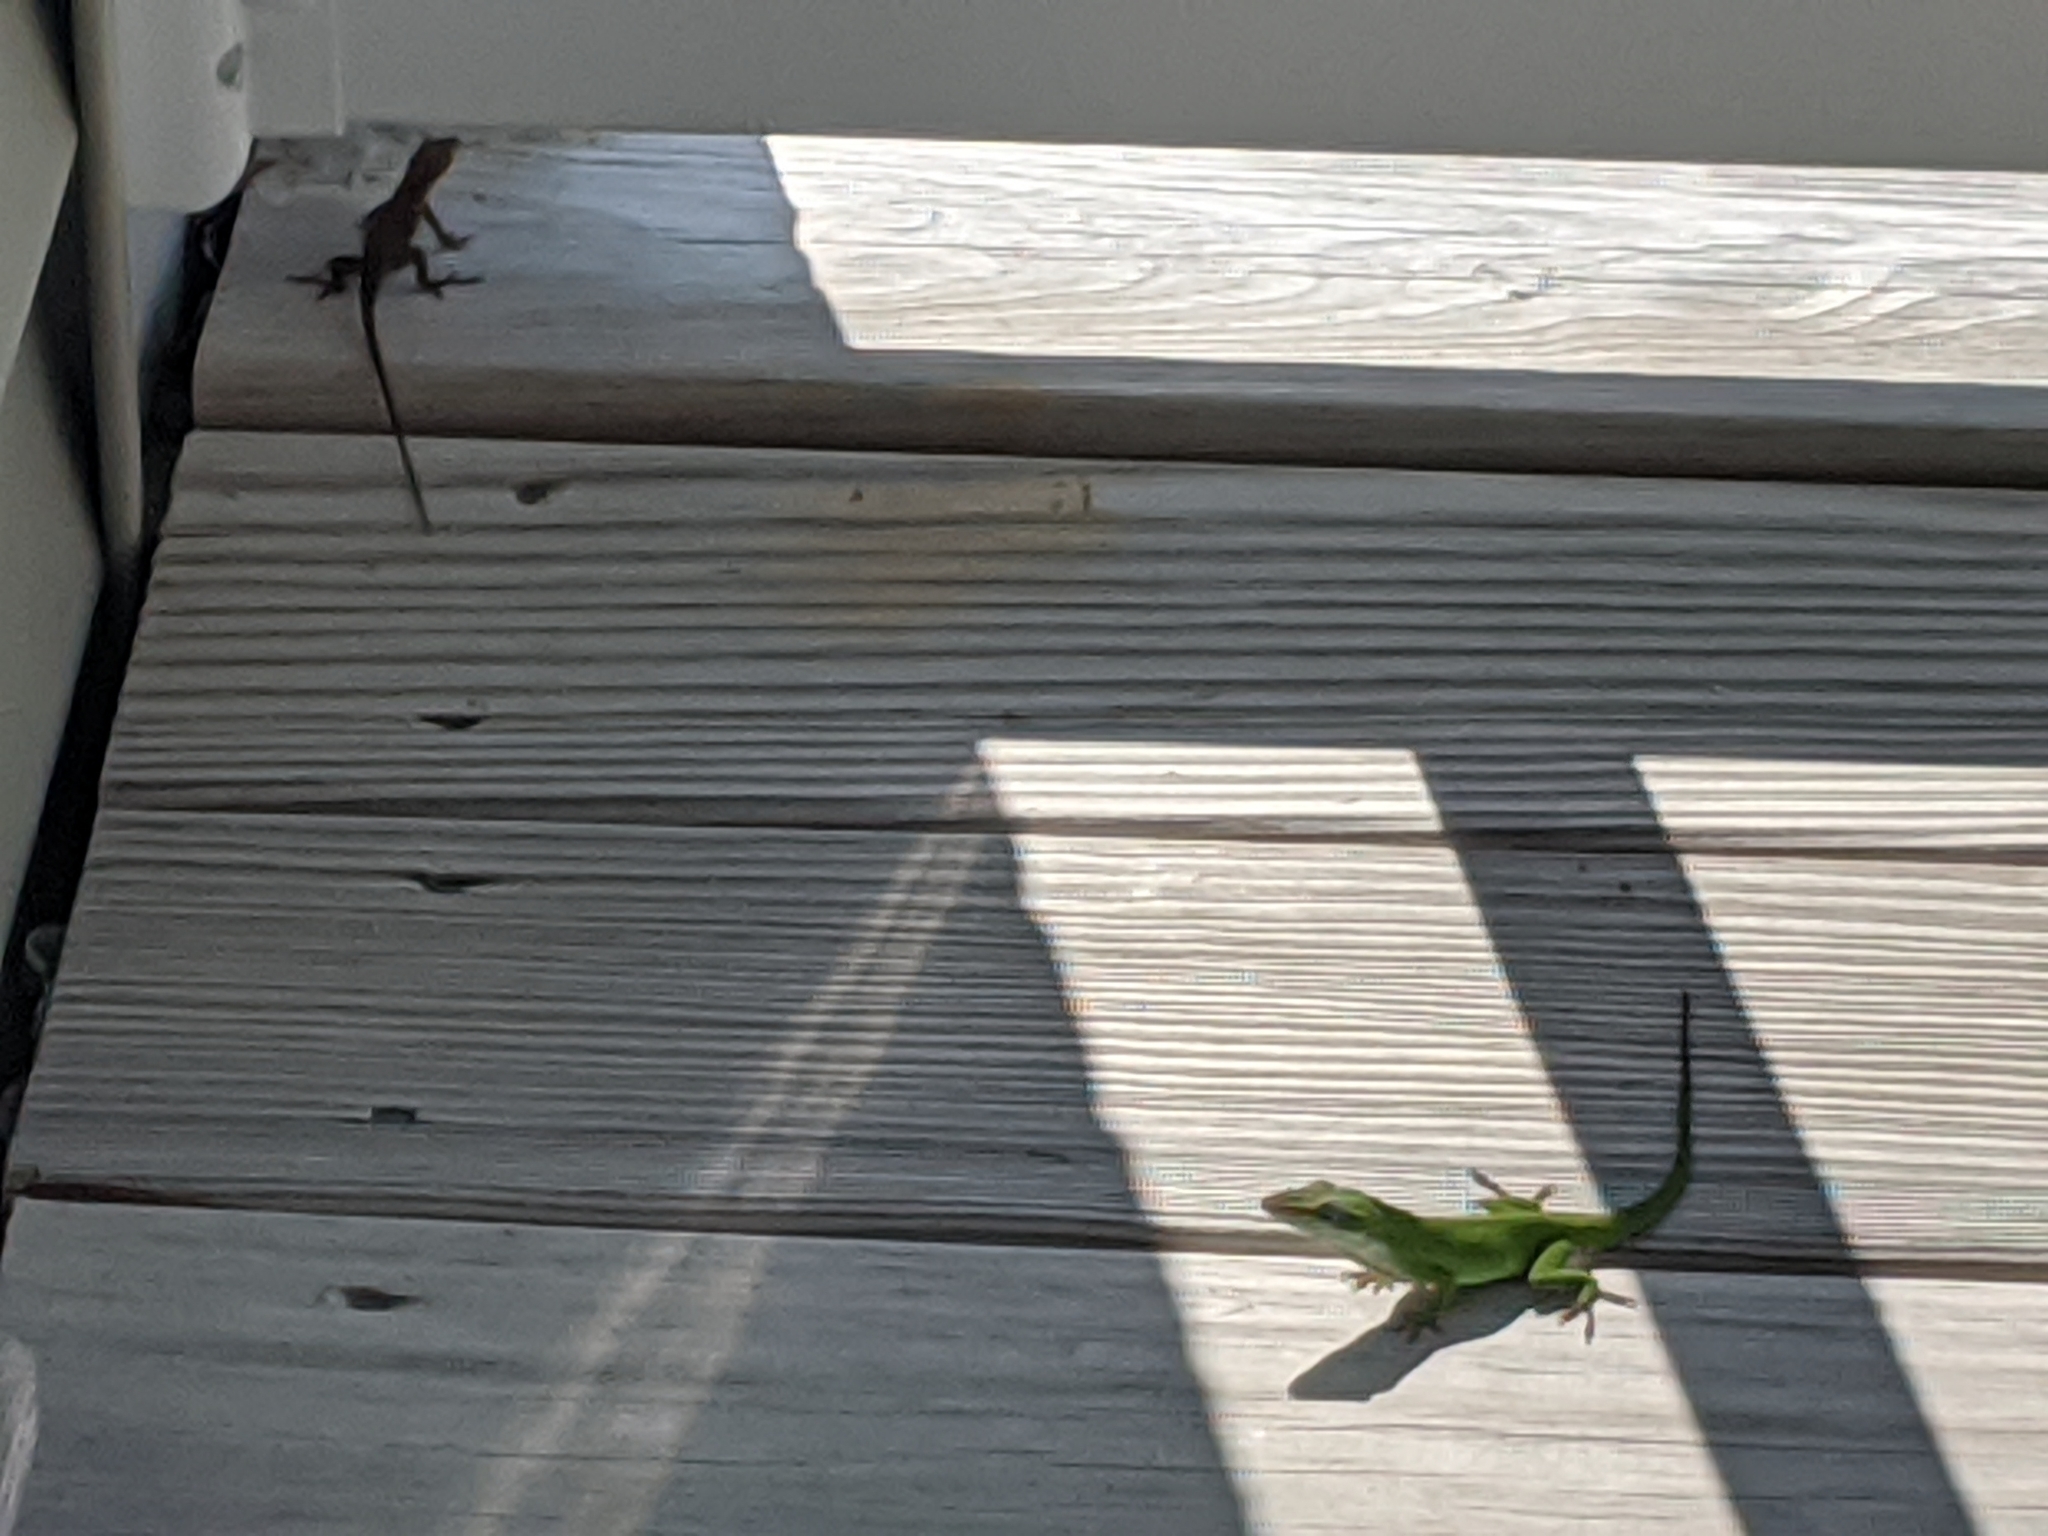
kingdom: Animalia
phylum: Chordata
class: Squamata
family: Dactyloidae
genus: Anolis
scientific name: Anolis carolinensis
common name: Green anole
